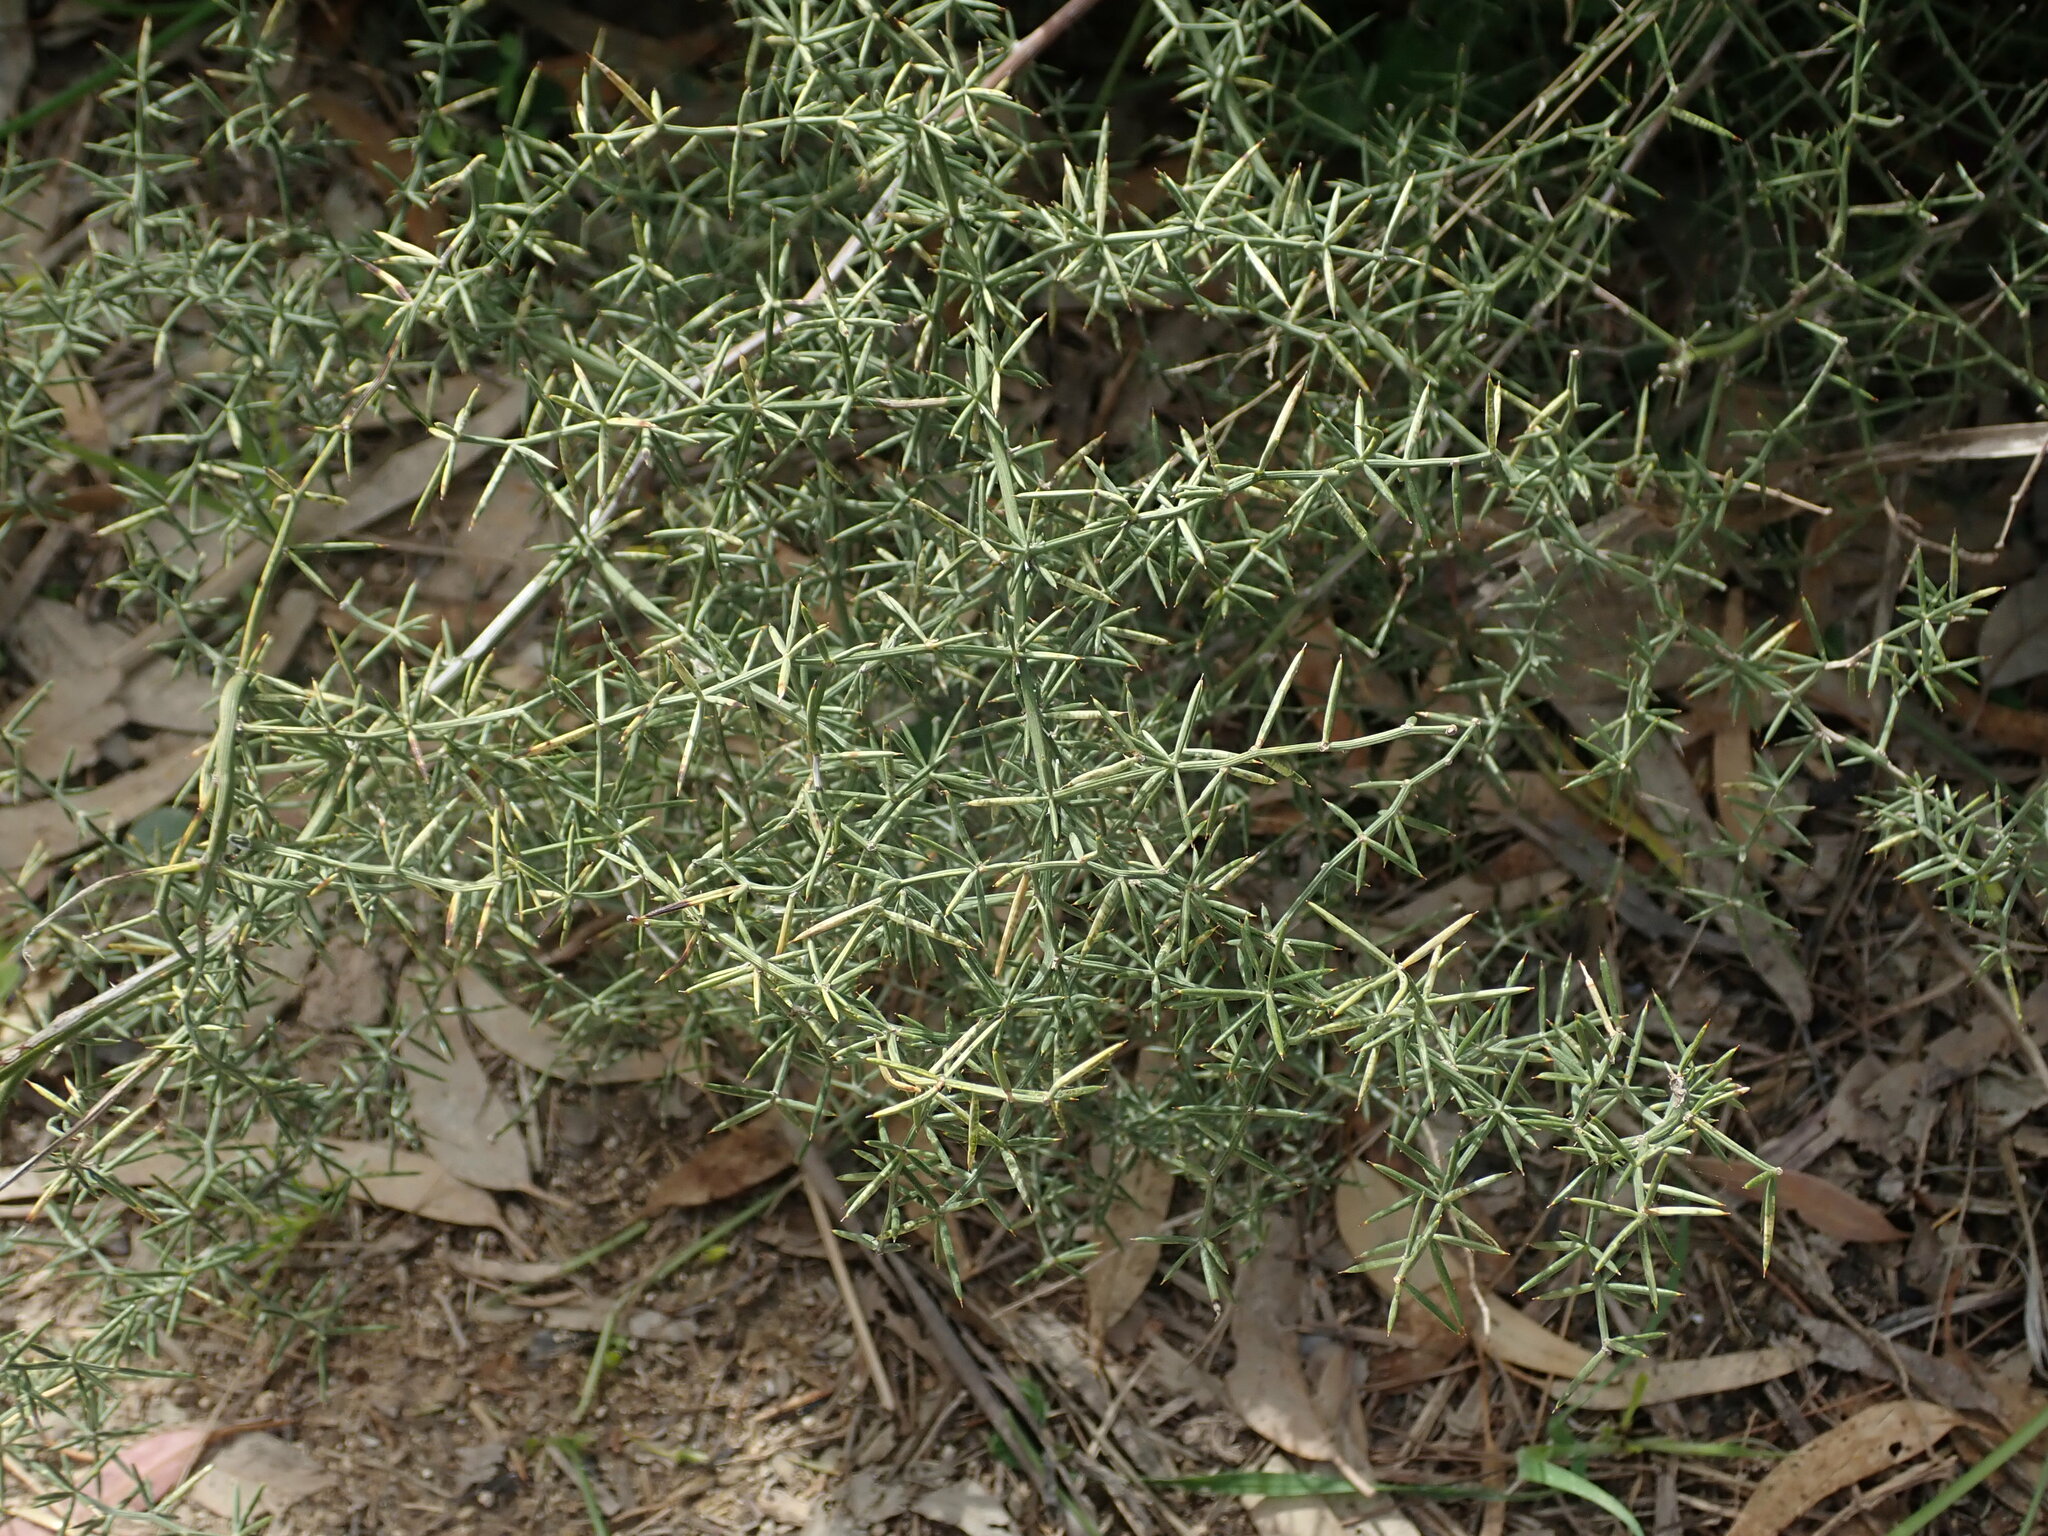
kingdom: Plantae
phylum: Tracheophyta
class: Liliopsida
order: Asparagales
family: Asparagaceae
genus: Asparagus
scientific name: Asparagus aphyllus
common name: Mediterranean asparagus
